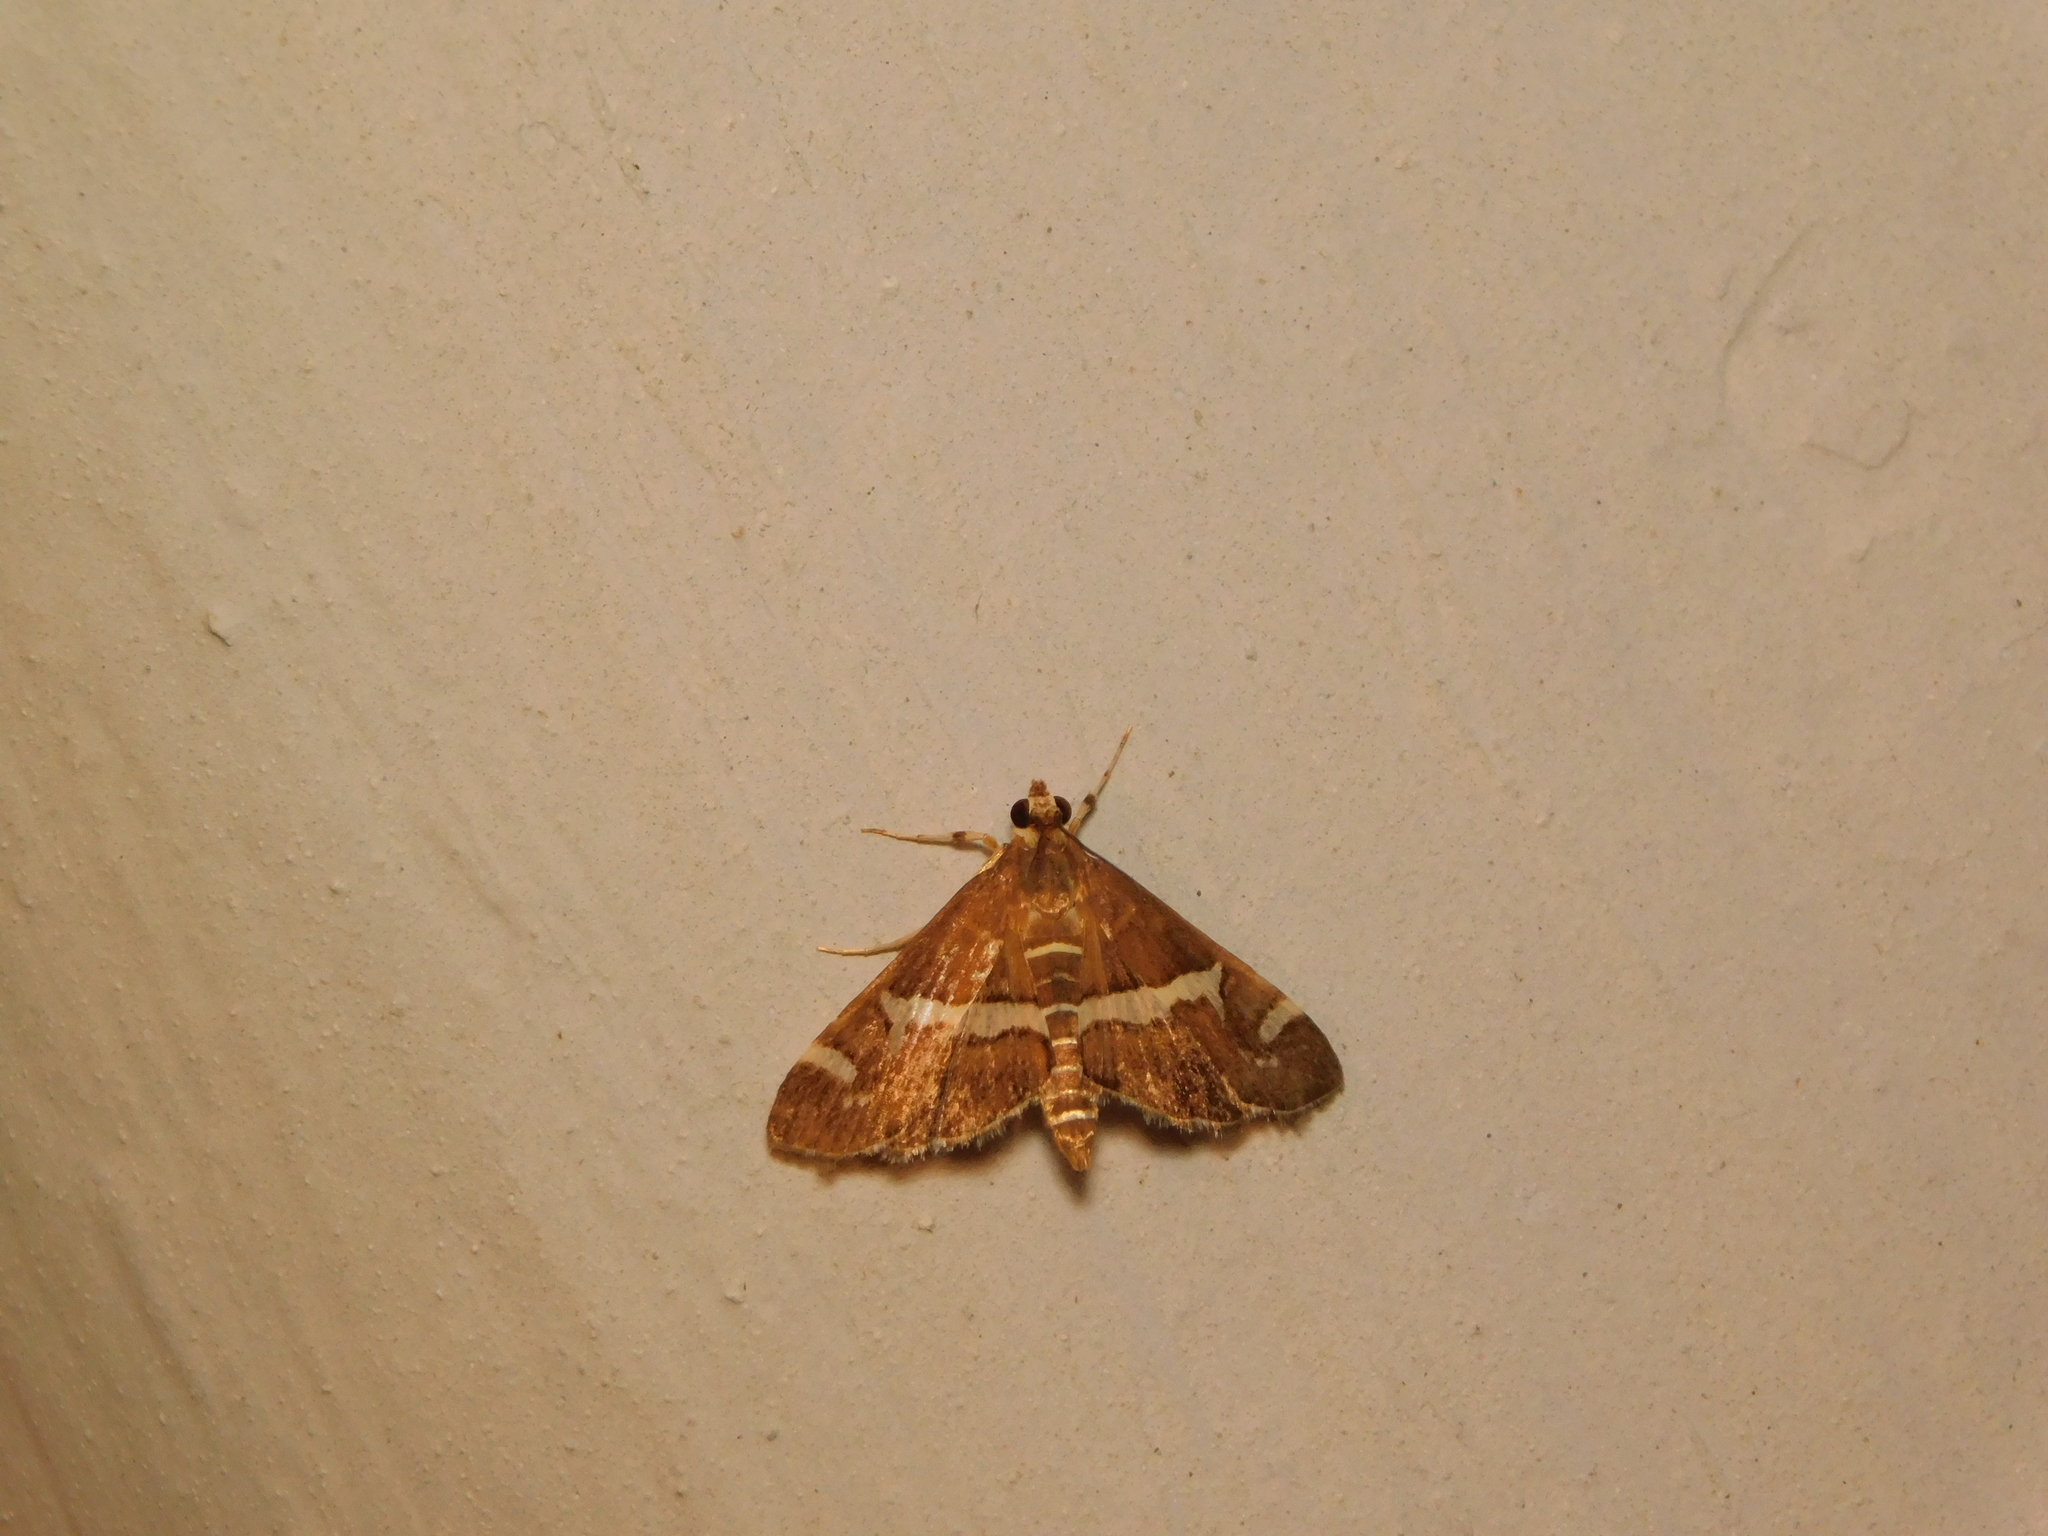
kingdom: Animalia
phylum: Arthropoda
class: Insecta
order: Lepidoptera
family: Crambidae
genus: Spoladea
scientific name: Spoladea recurvalis
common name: Beet webworm moth
